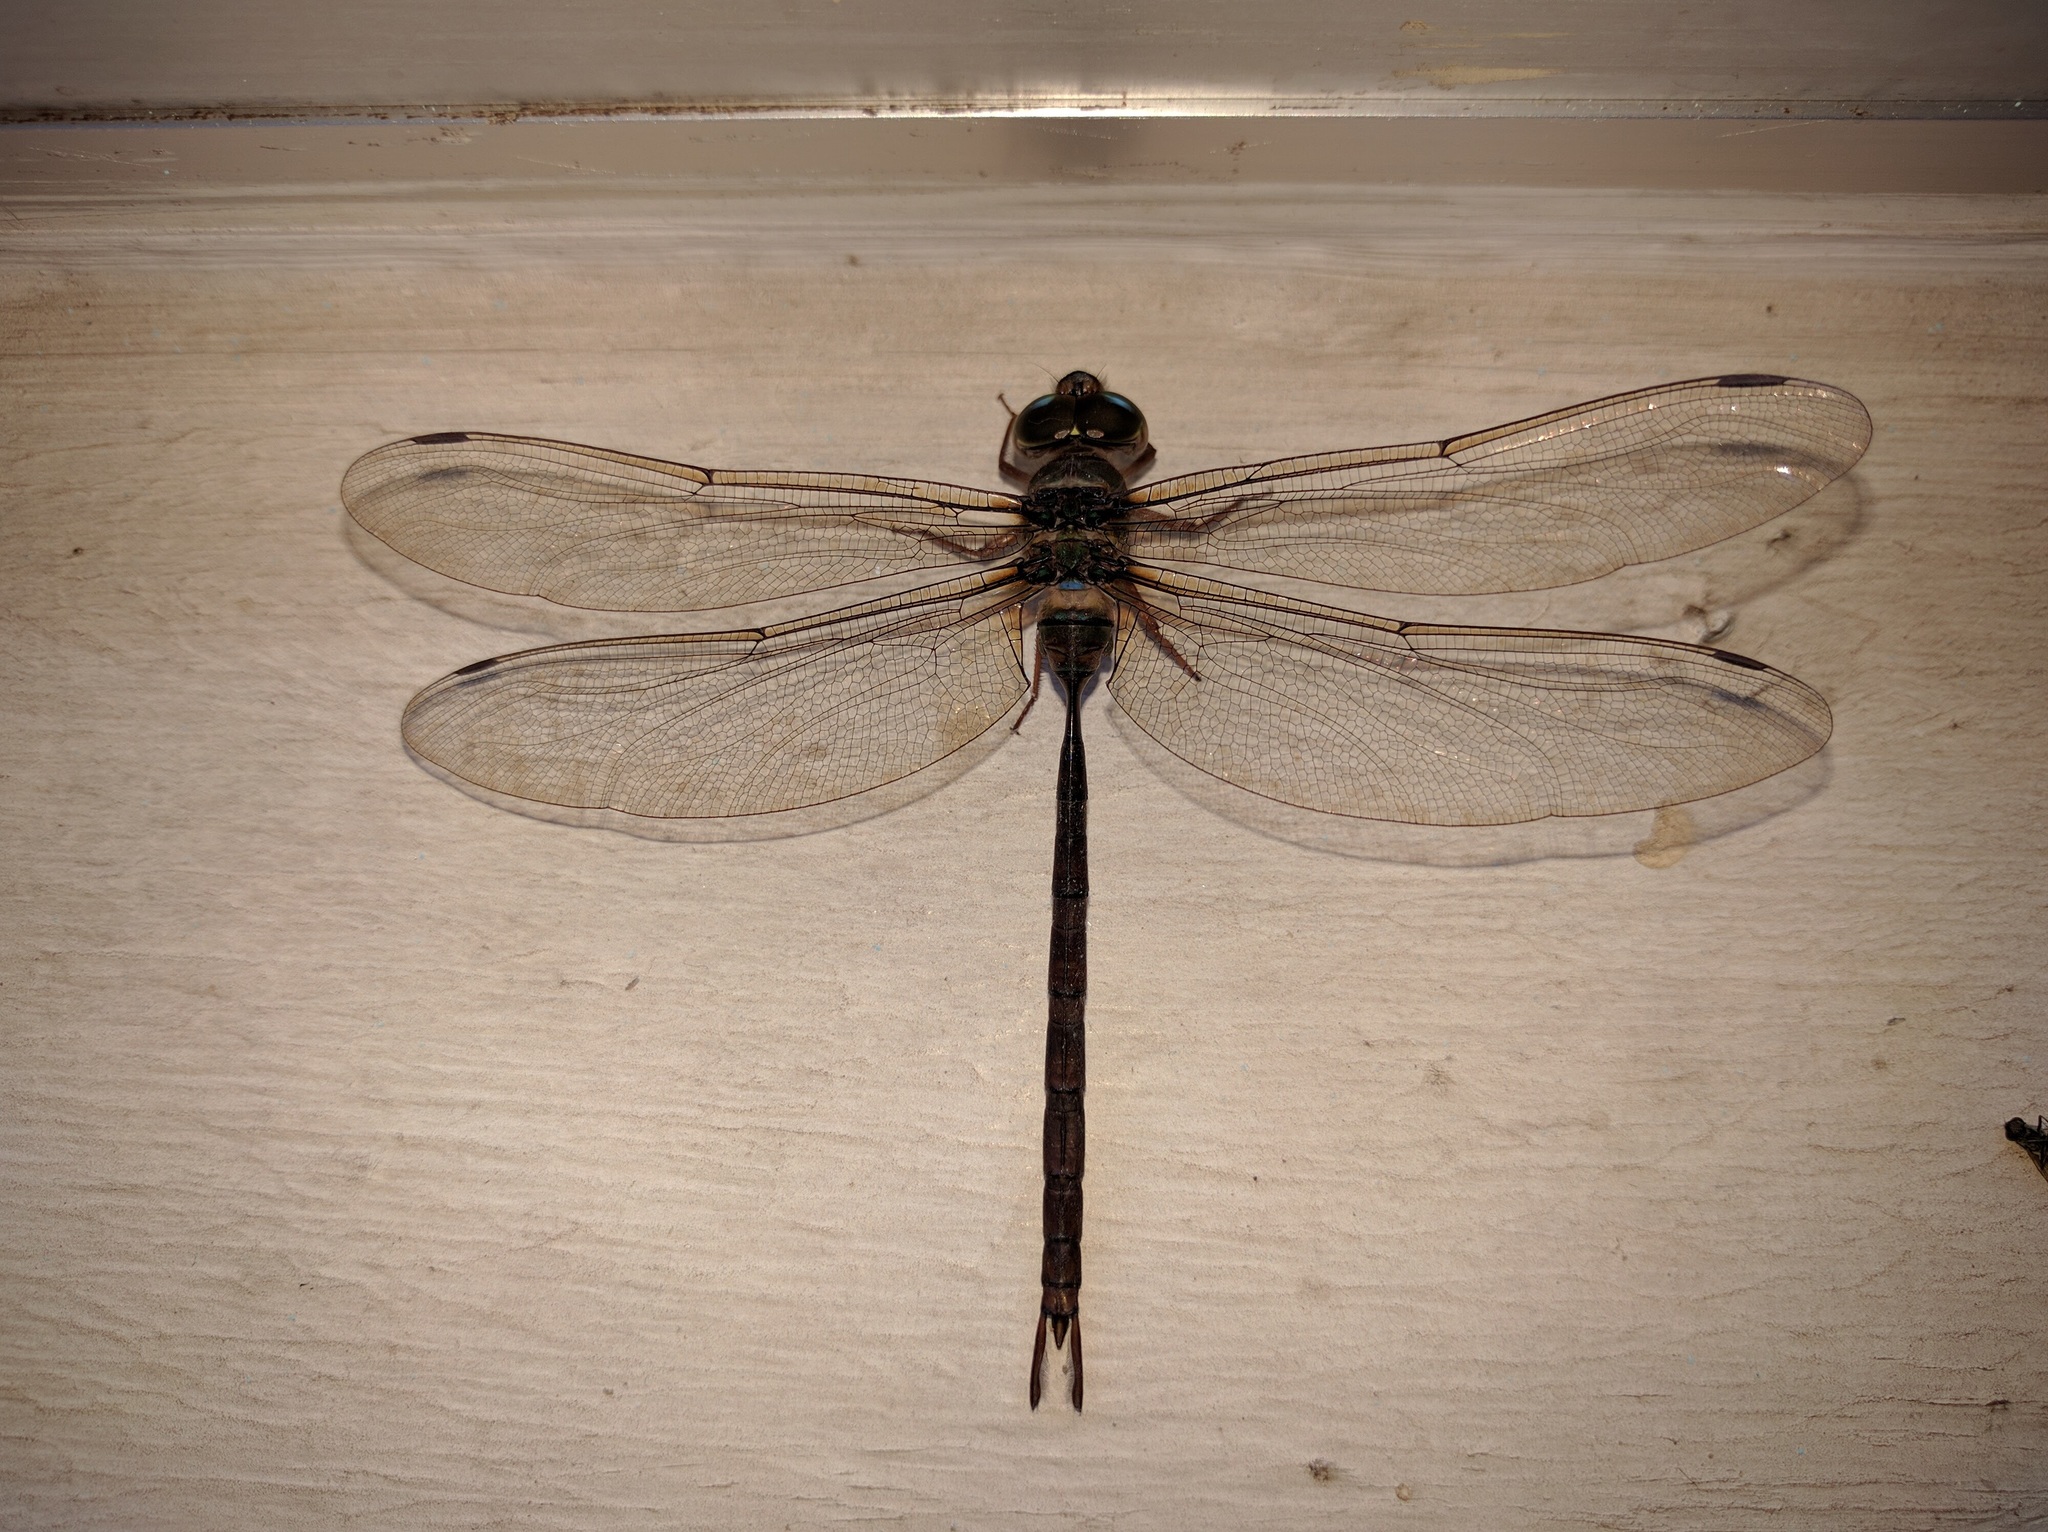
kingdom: Animalia
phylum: Arthropoda
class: Insecta
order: Odonata
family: Aeshnidae
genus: Gynacantha
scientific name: Gynacantha sextans
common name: Dark-rayed duskhawker
